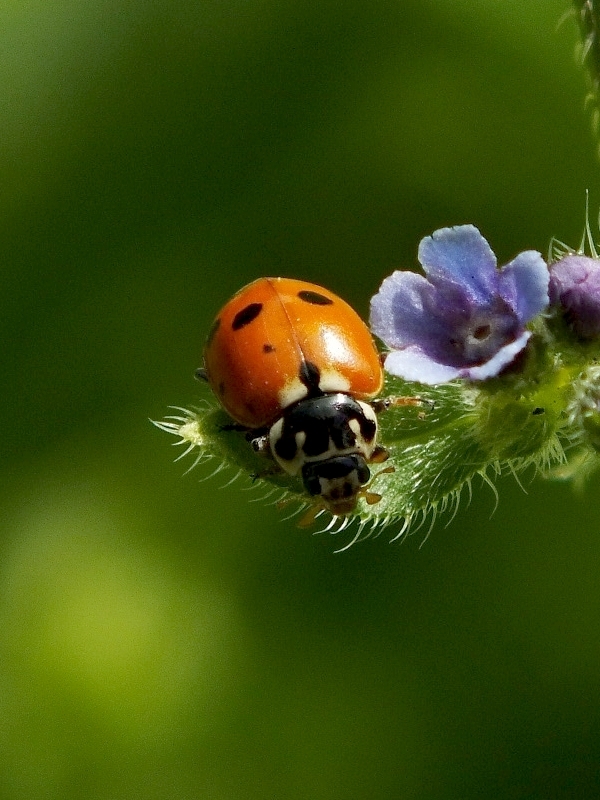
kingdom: Animalia
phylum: Arthropoda
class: Insecta
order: Coleoptera
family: Coccinellidae
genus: Hippodamia
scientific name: Hippodamia variegata
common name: Ladybird beetle
